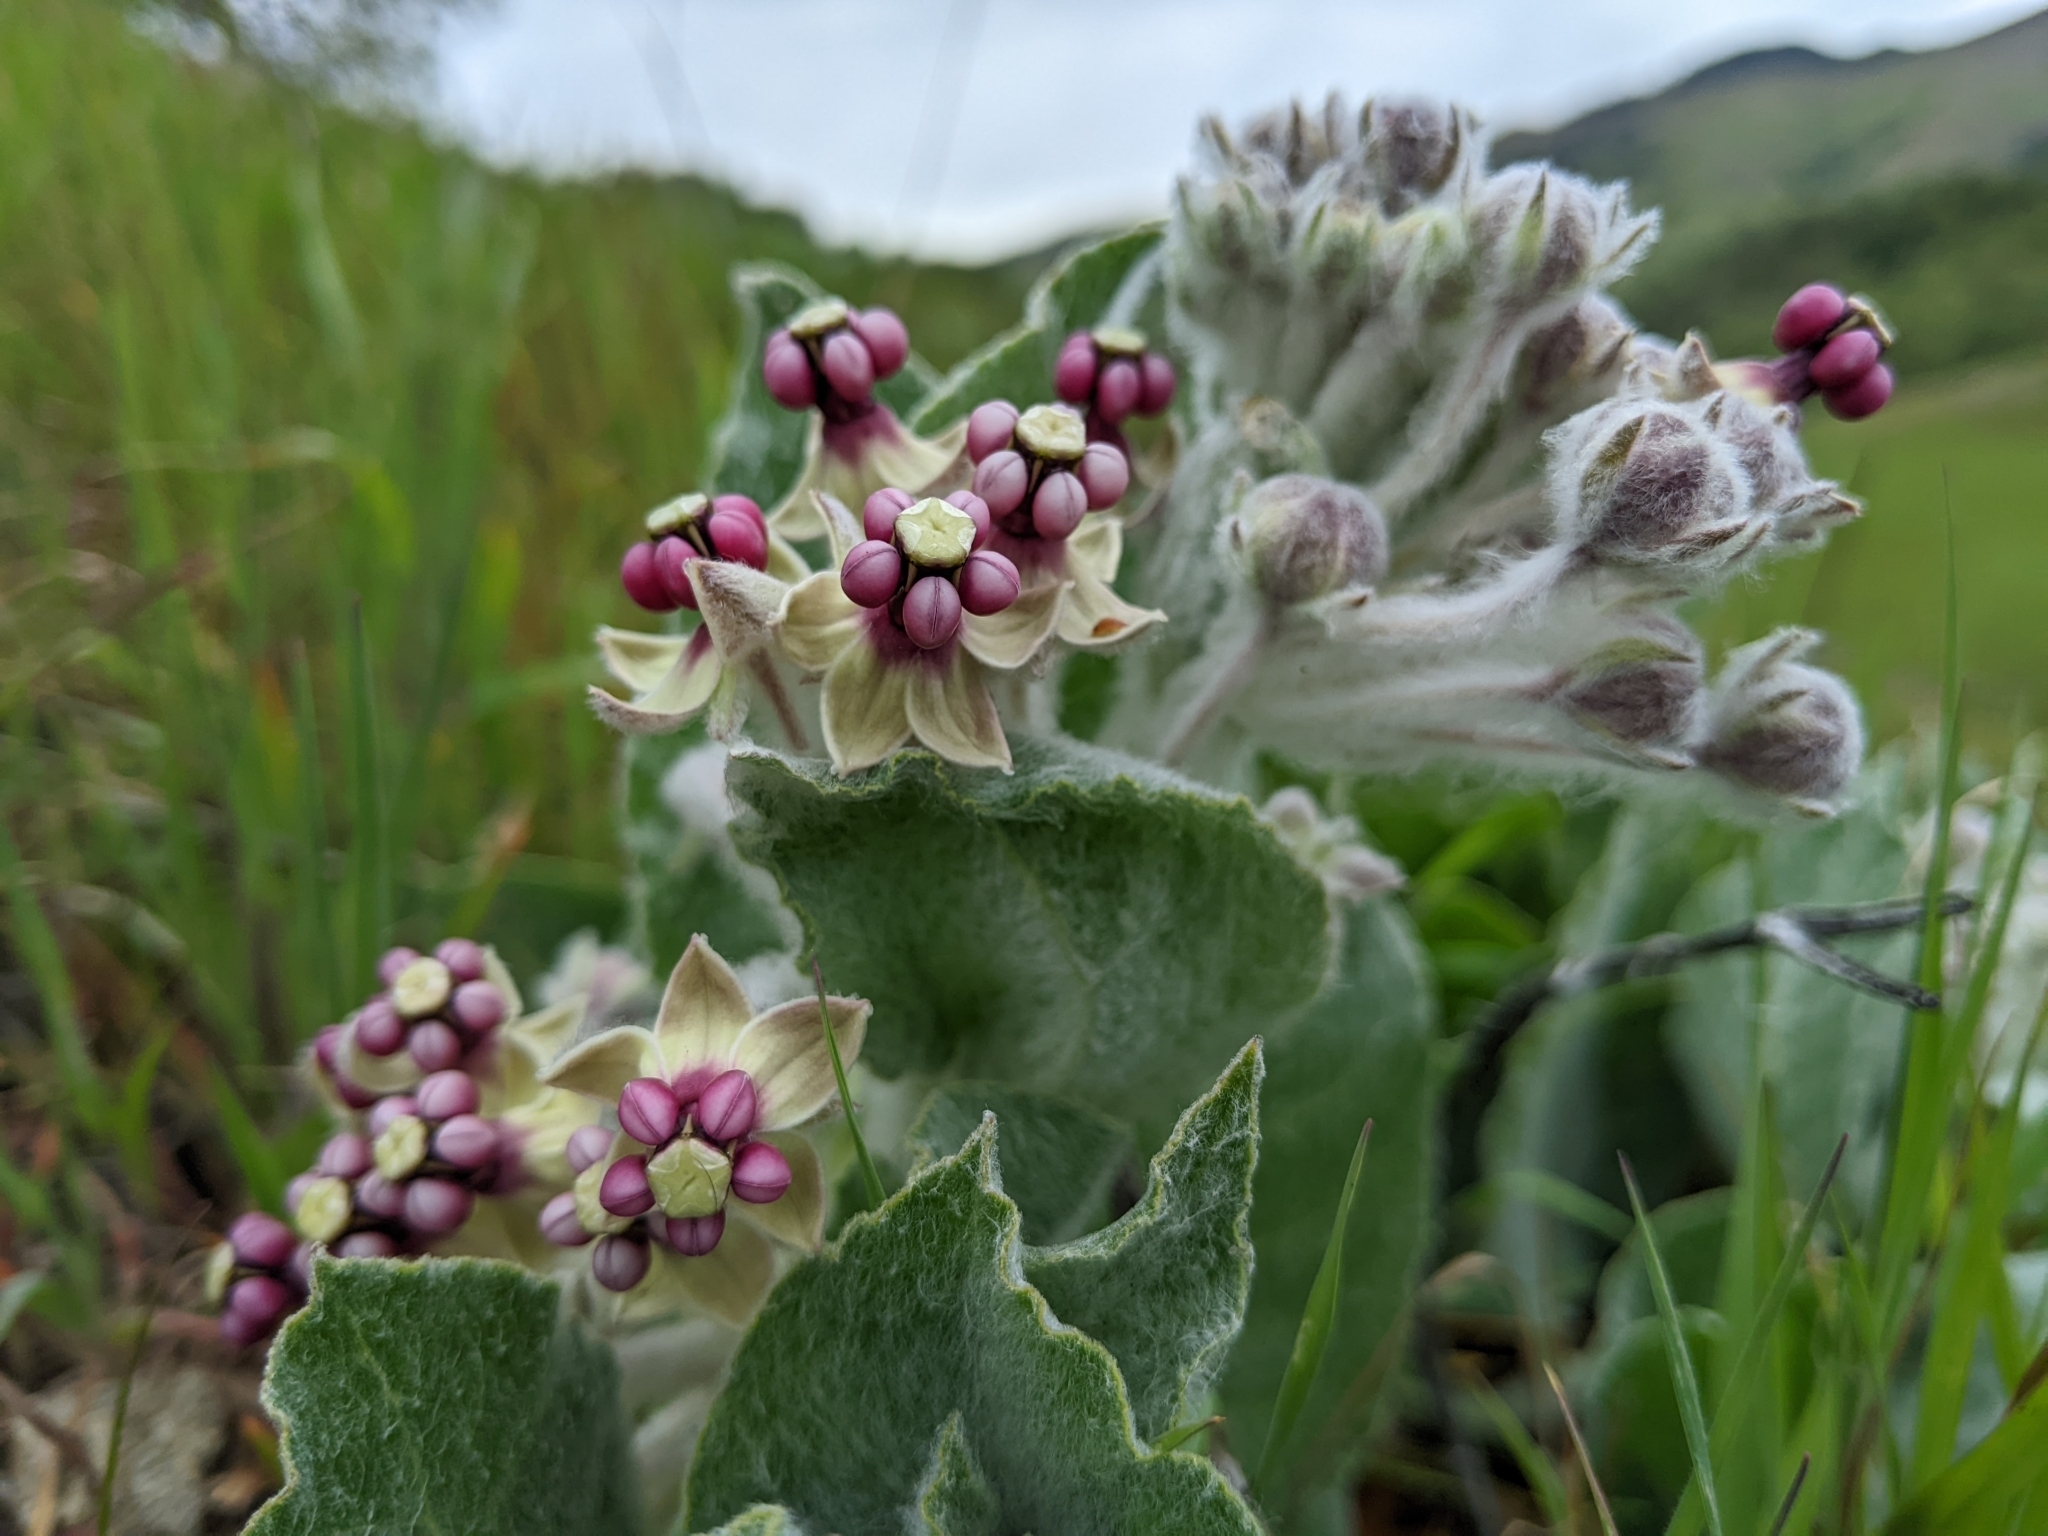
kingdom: Plantae
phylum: Tracheophyta
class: Magnoliopsida
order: Gentianales
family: Apocynaceae
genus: Asclepias
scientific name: Asclepias californica
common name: California milkweed
